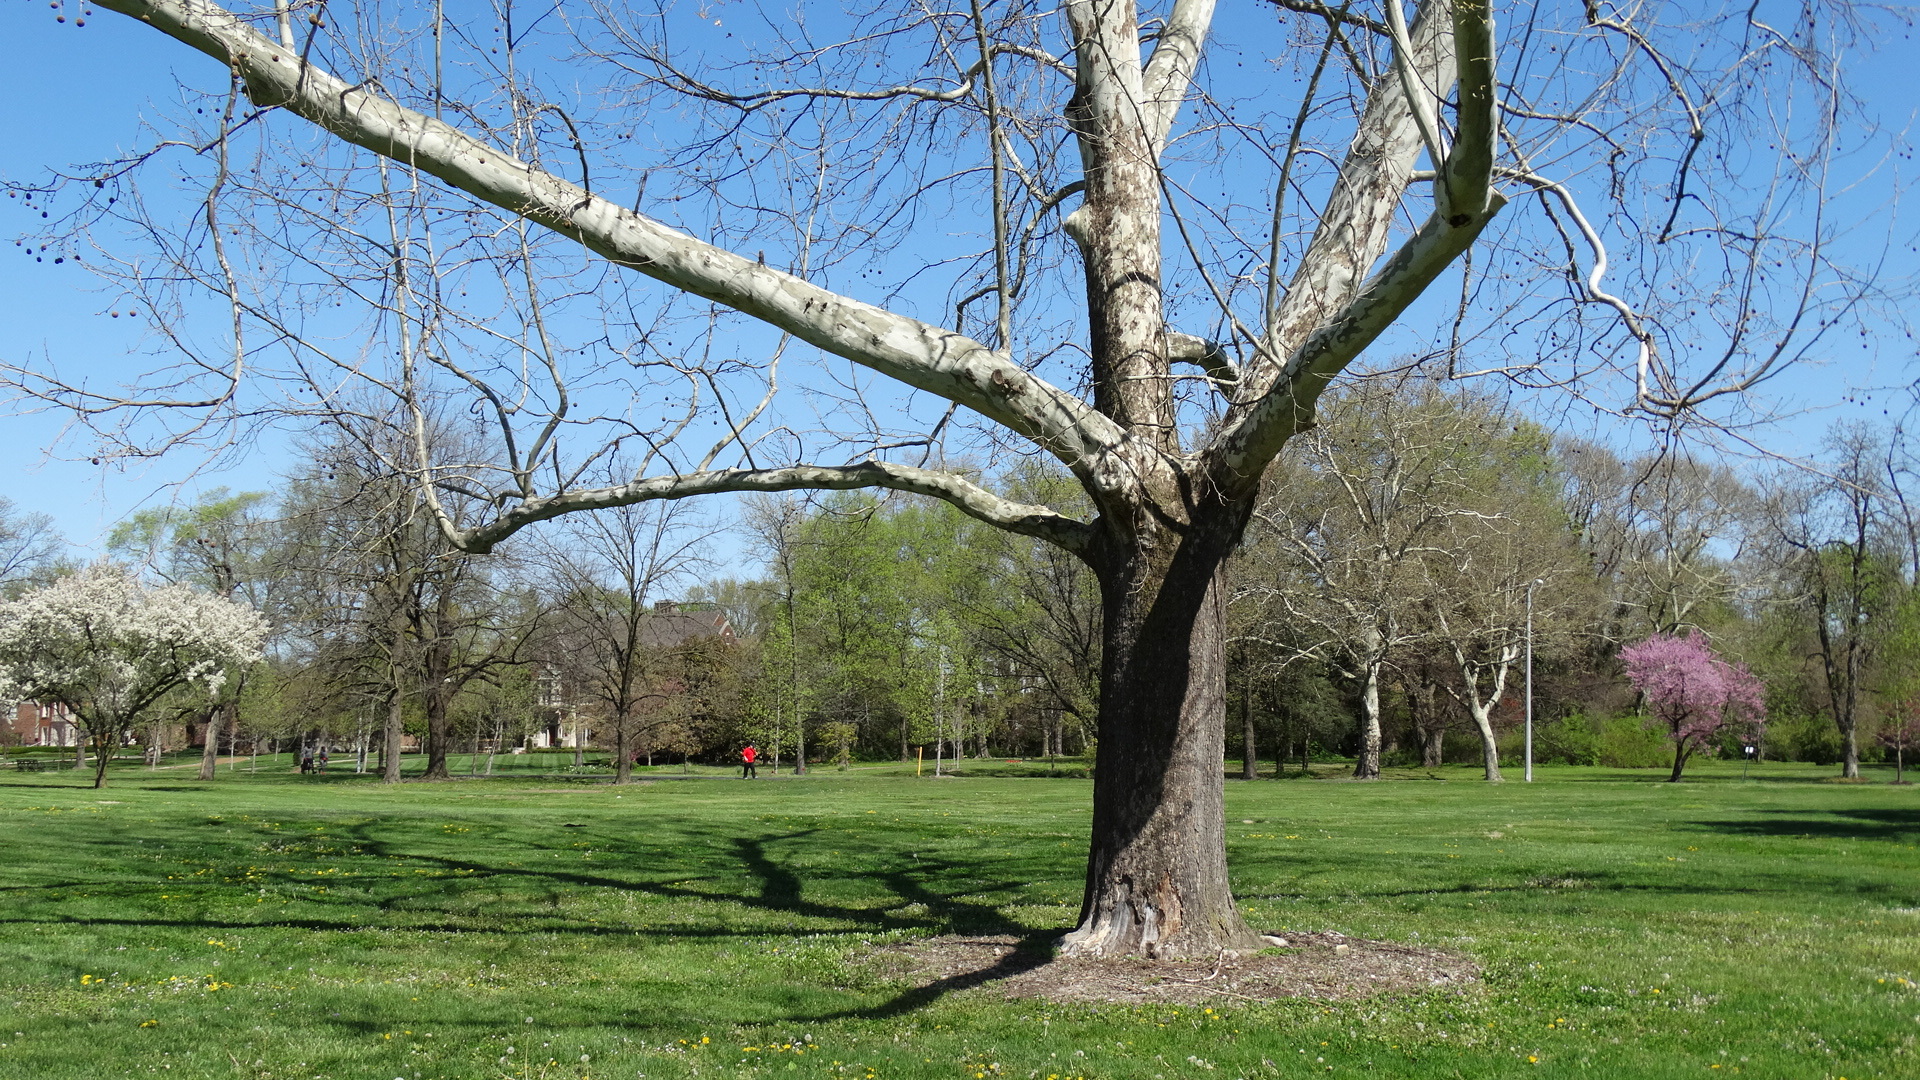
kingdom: Plantae
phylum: Tracheophyta
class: Magnoliopsida
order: Proteales
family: Platanaceae
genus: Platanus
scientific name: Platanus occidentalis
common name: American sycamore
